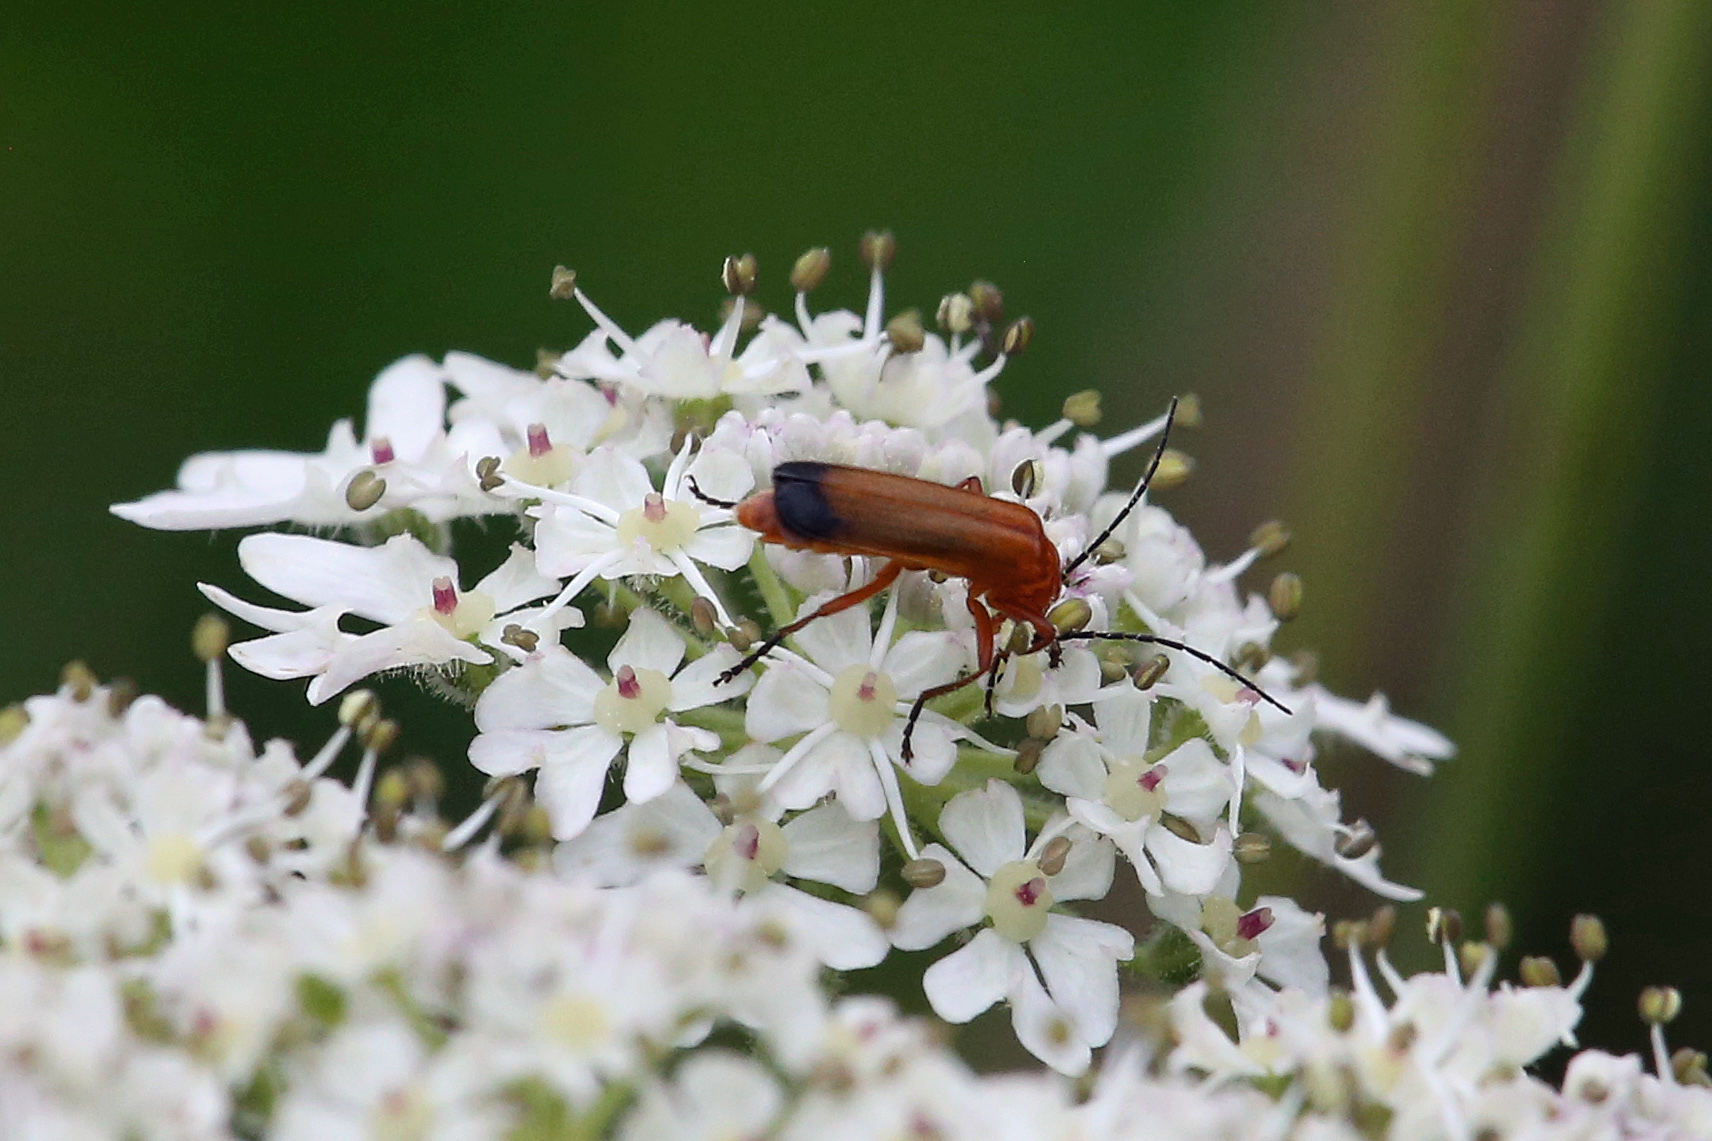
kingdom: Animalia
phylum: Arthropoda
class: Insecta
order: Coleoptera
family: Cantharidae
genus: Rhagonycha
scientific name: Rhagonycha fulva
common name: Common red soldier beetle
